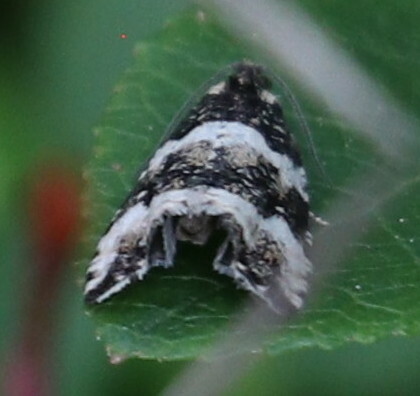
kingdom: Animalia
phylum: Arthropoda
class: Insecta
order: Lepidoptera
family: Tortricidae
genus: Argyroploce
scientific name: Argyroploce bipunctana
